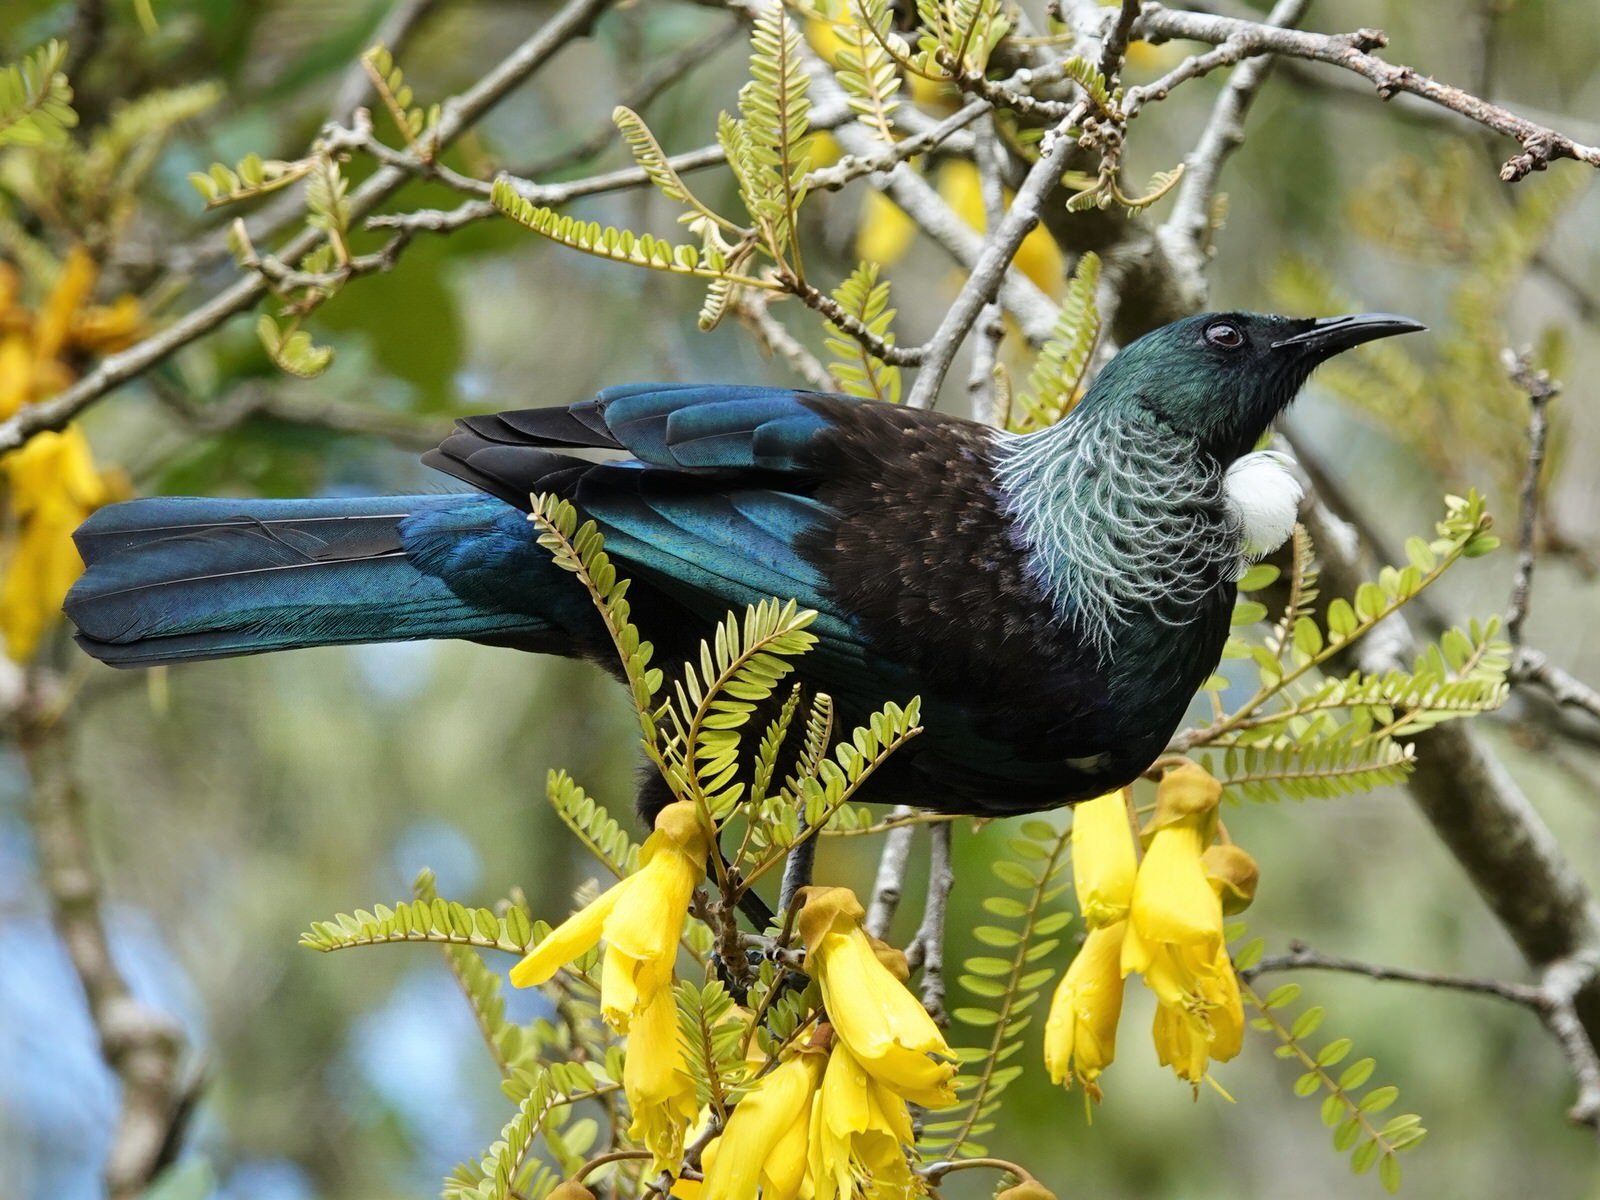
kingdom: Animalia
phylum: Chordata
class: Aves
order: Passeriformes
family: Meliphagidae
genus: Prosthemadera
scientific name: Prosthemadera novaeseelandiae
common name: Tui
